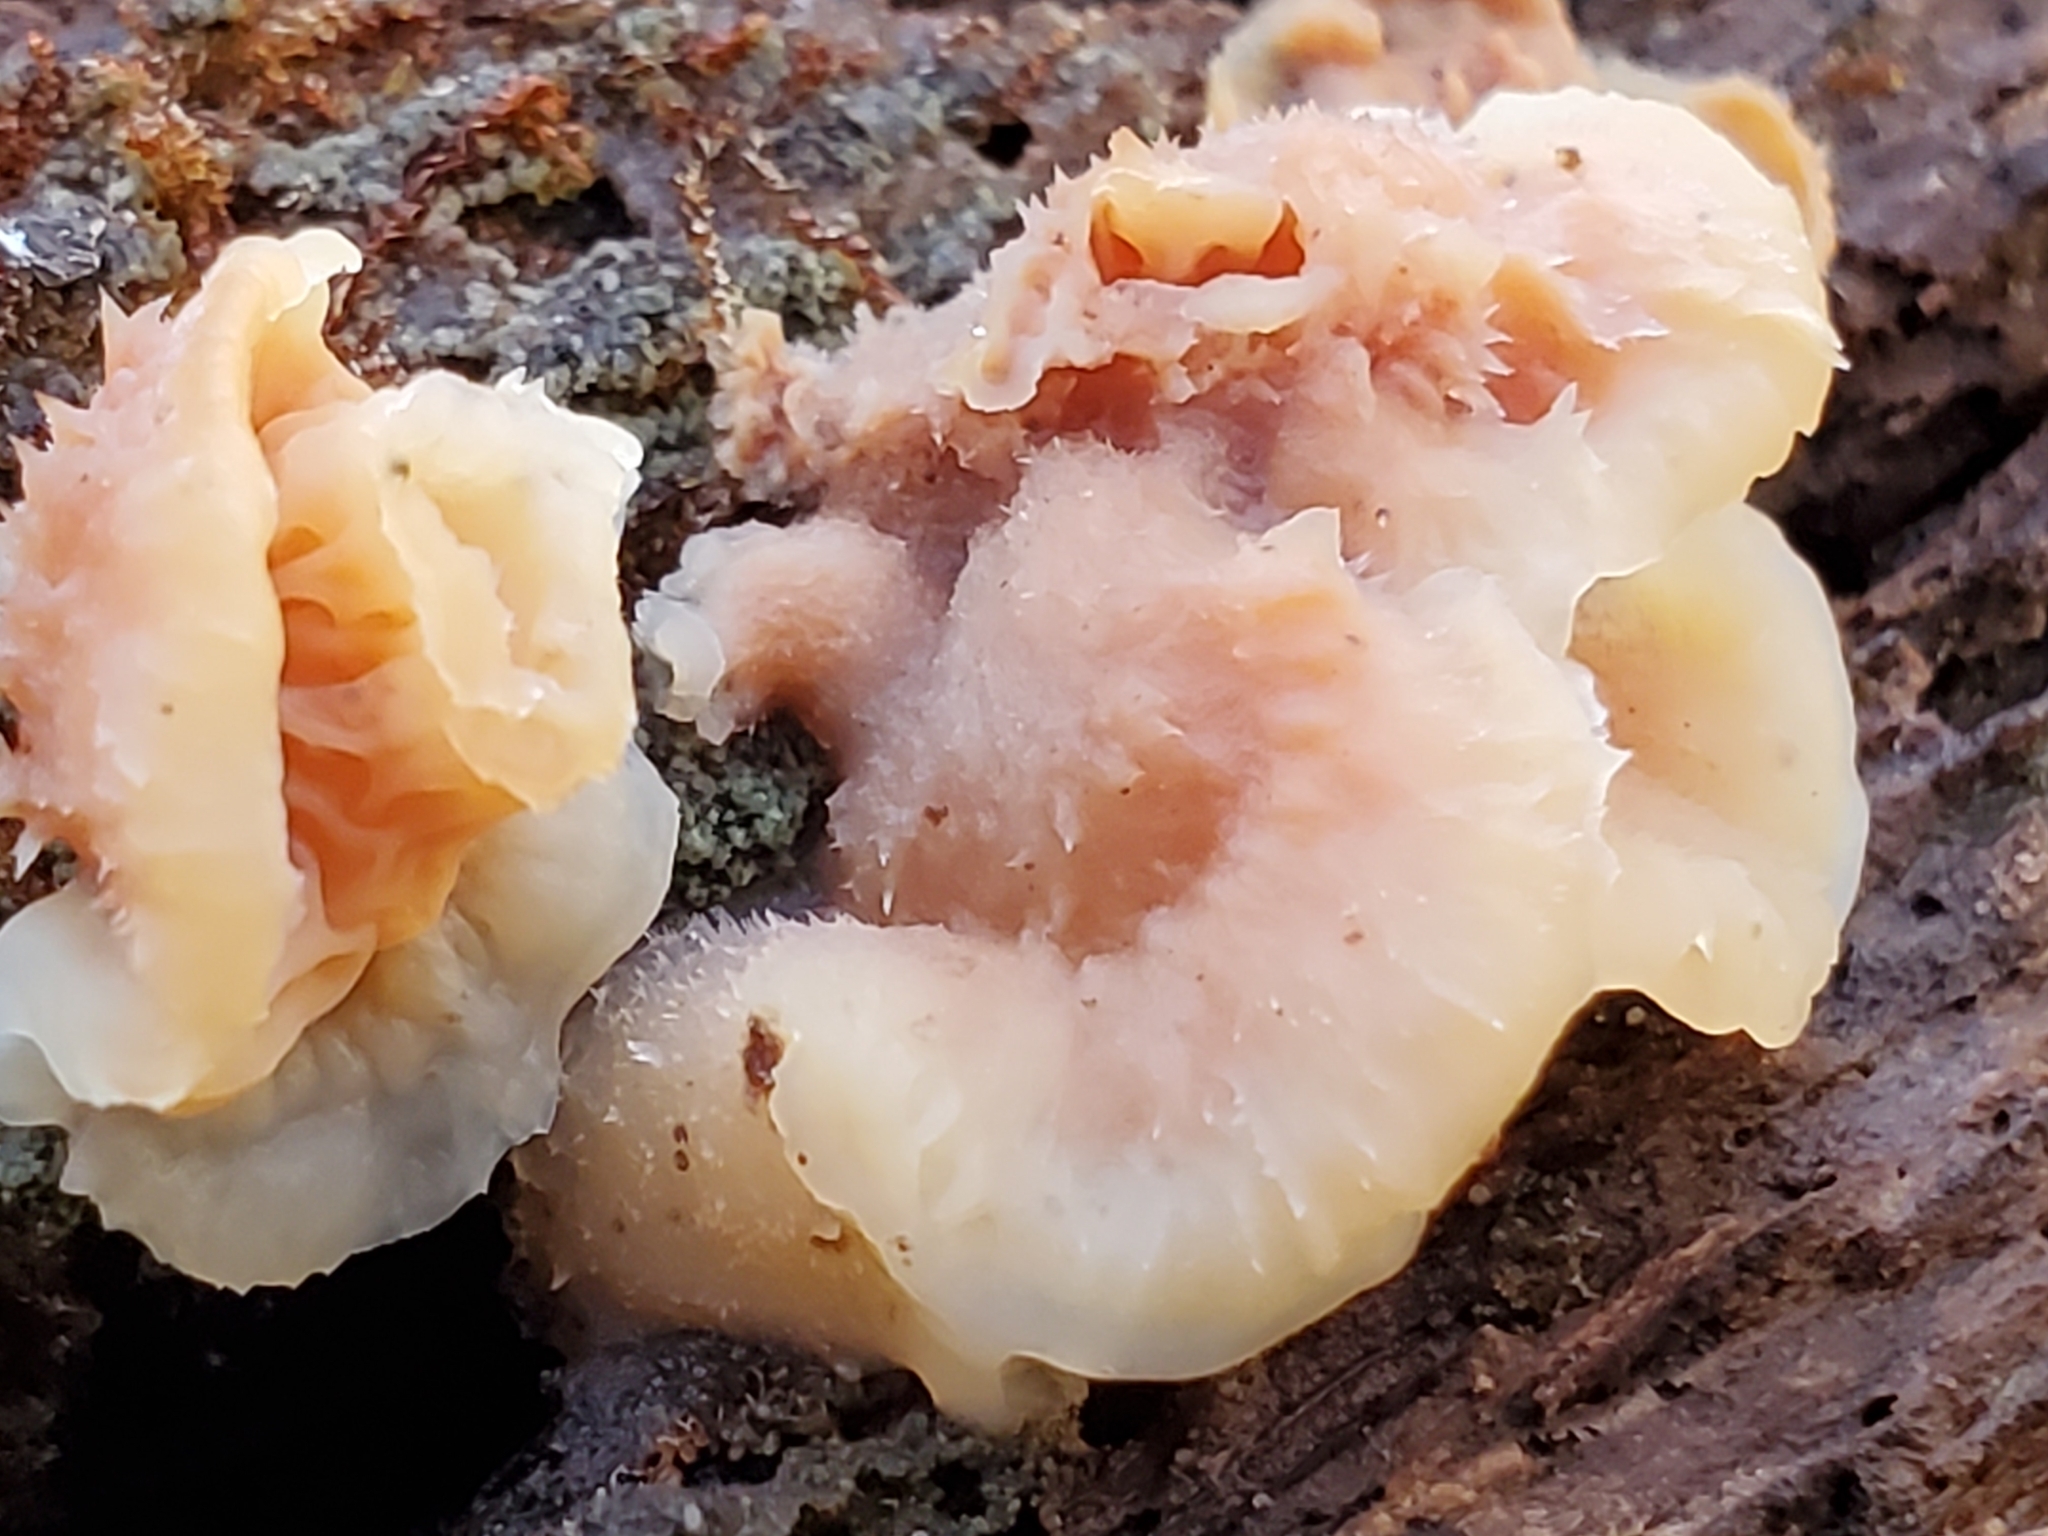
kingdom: Fungi
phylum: Basidiomycota
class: Agaricomycetes
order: Polyporales
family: Meruliaceae
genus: Phlebia
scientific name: Phlebia tremellosa
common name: Jelly rot
